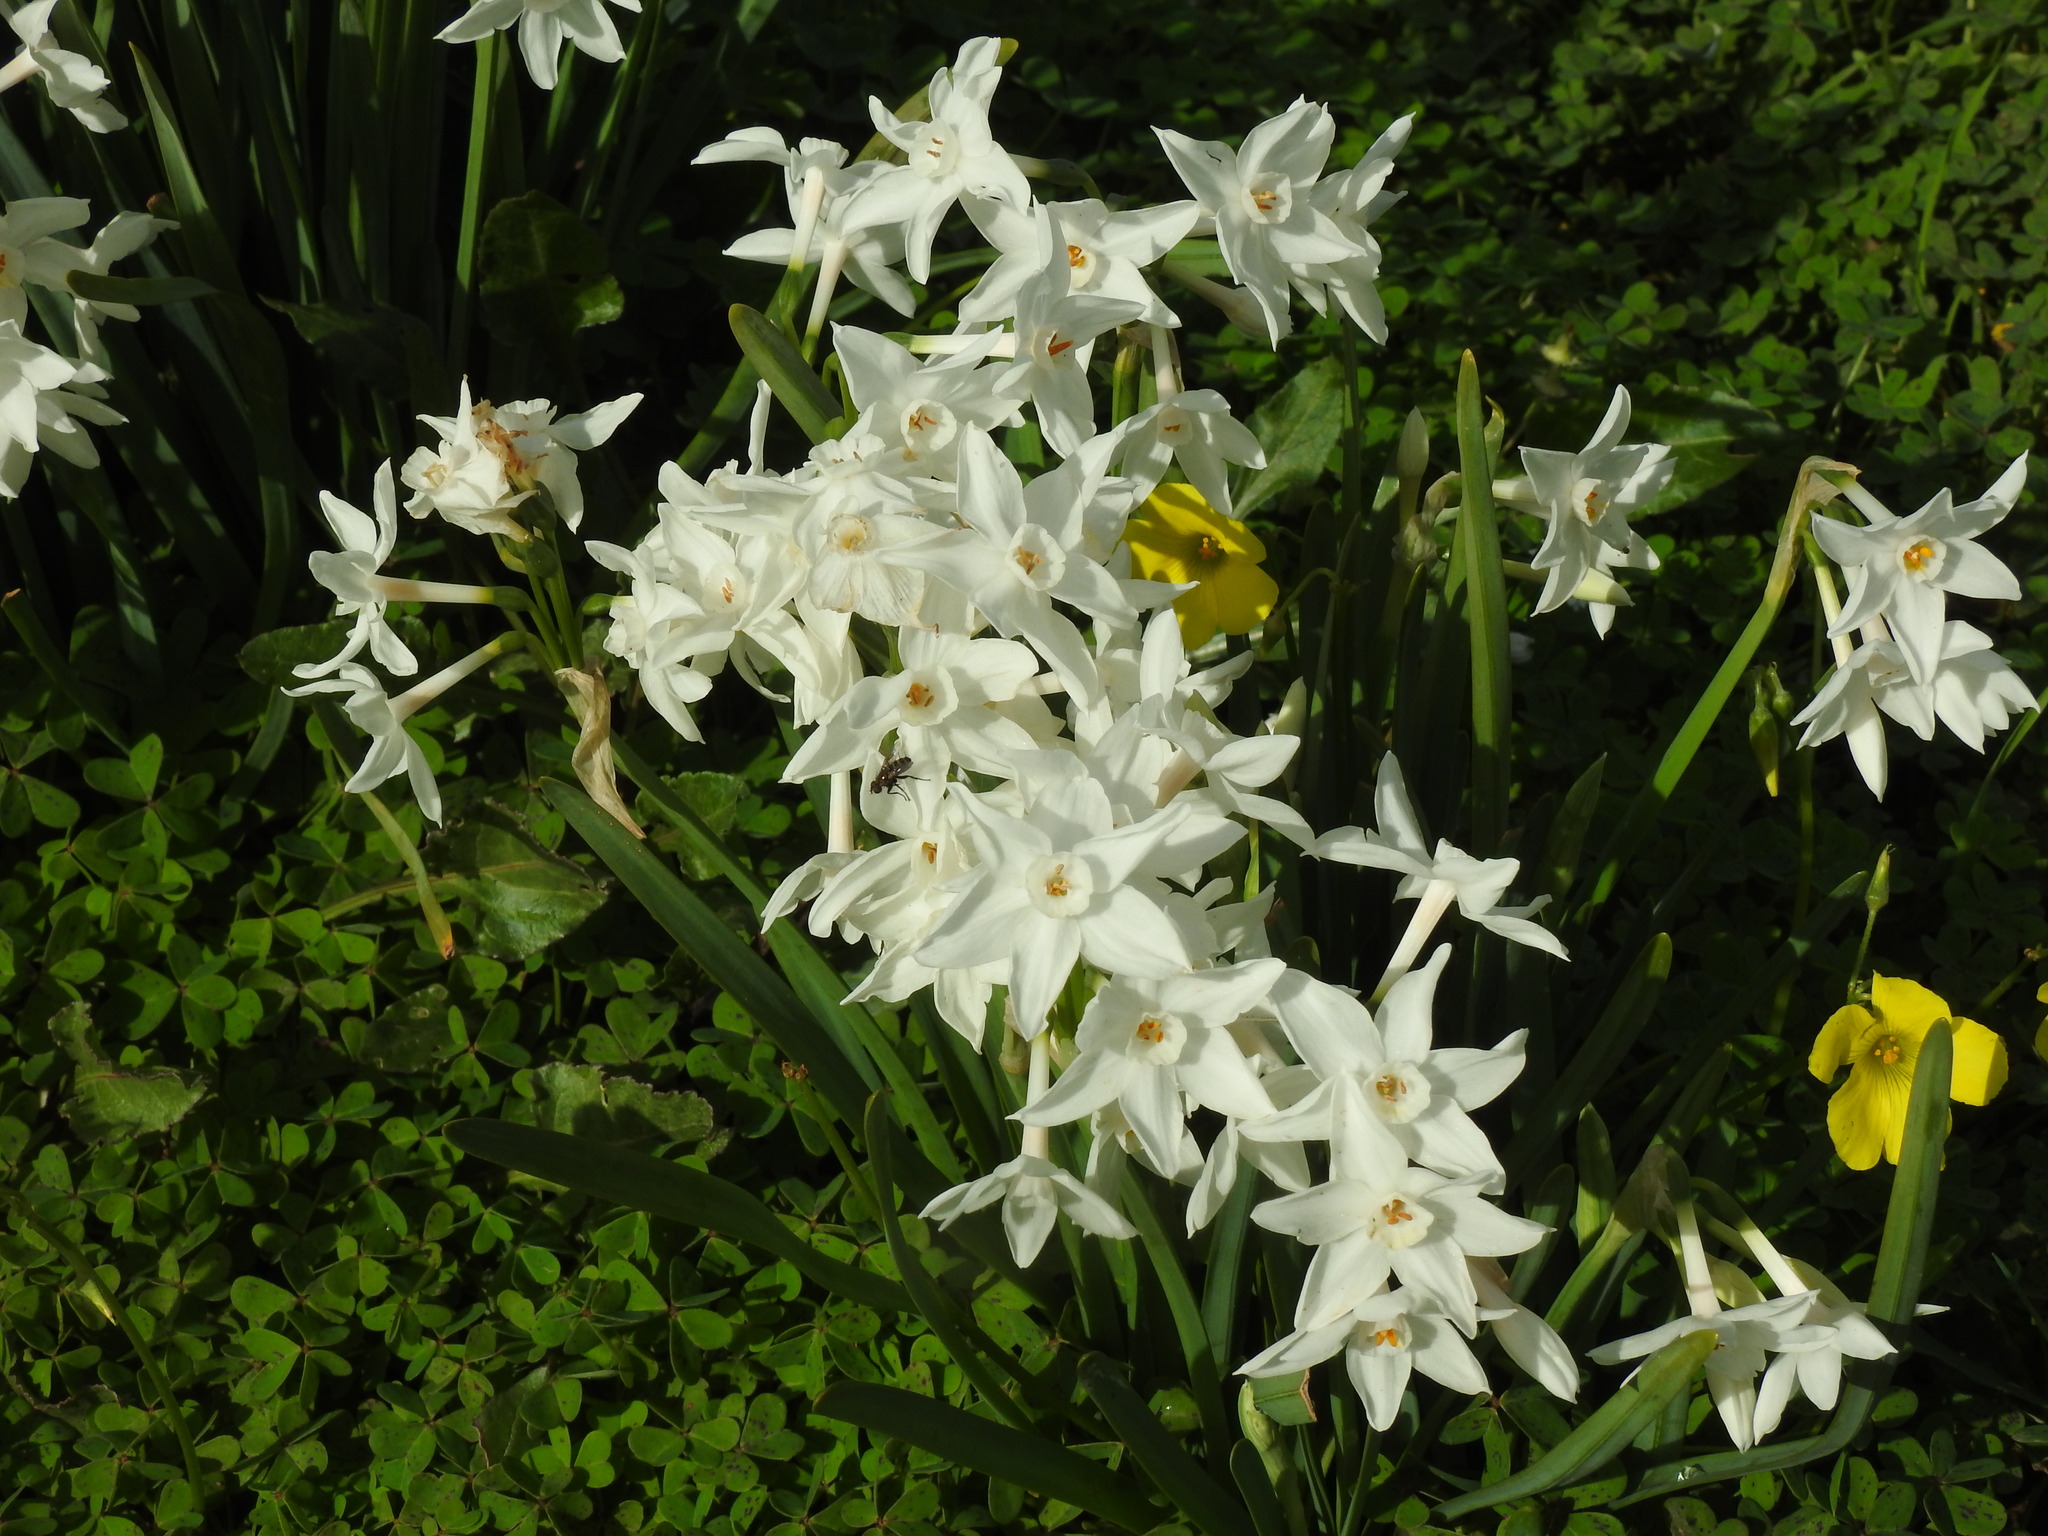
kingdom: Plantae
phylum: Tracheophyta
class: Liliopsida
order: Asparagales
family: Amaryllidaceae
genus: Narcissus
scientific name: Narcissus papyraceus
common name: Paper-white daffodil
